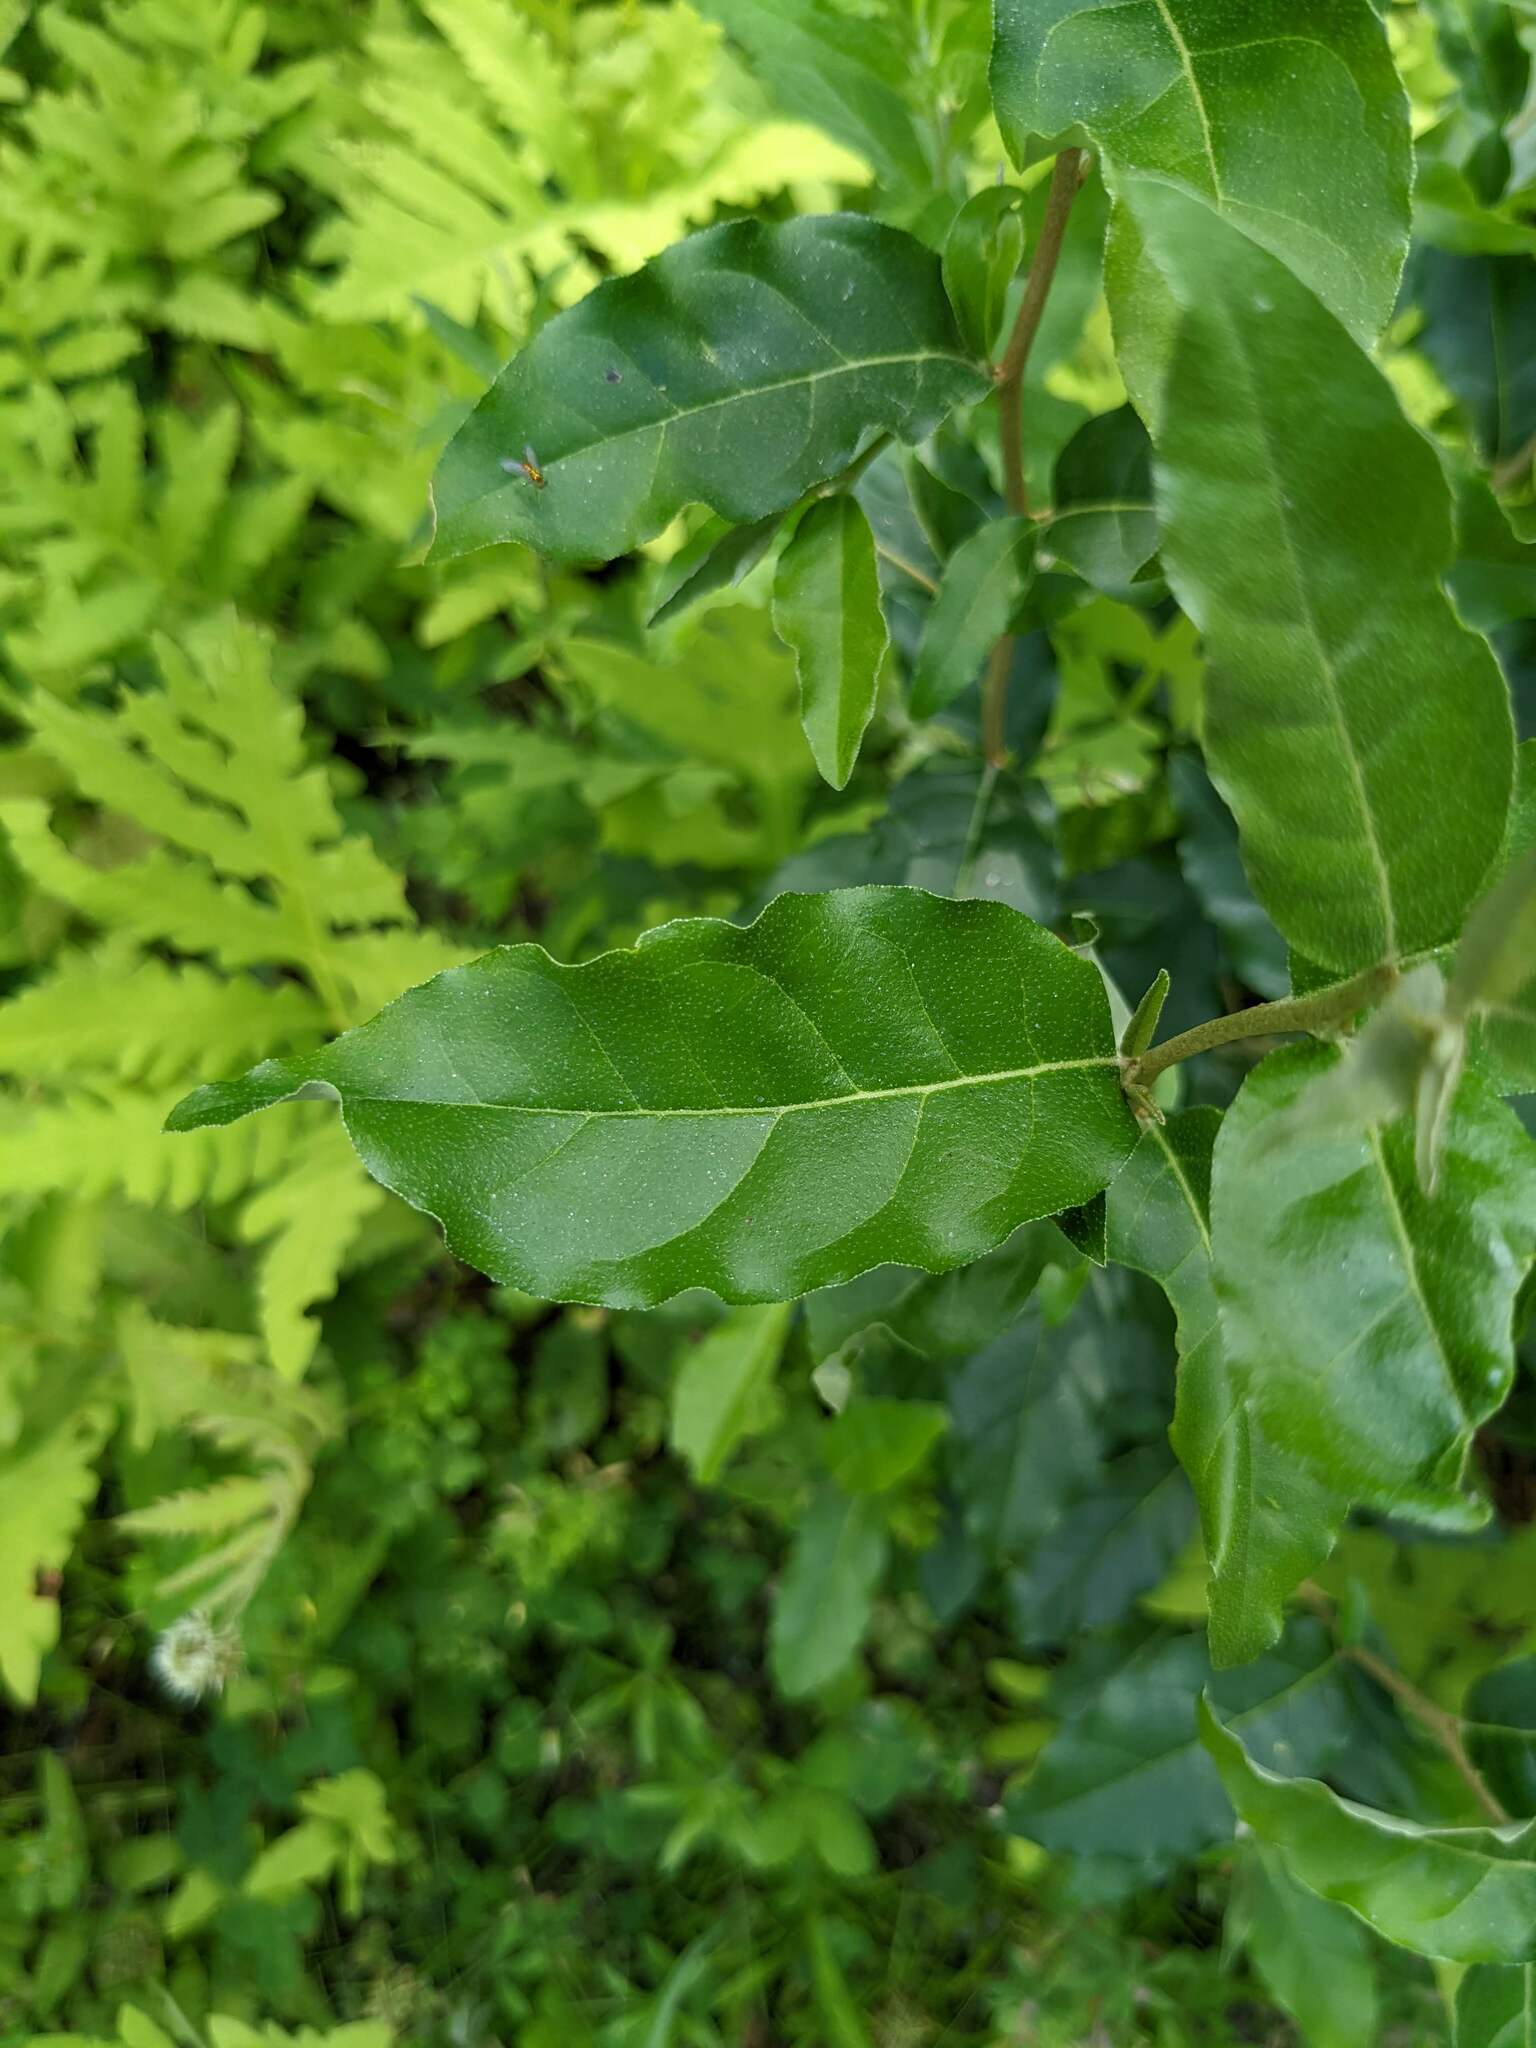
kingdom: Plantae
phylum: Tracheophyta
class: Magnoliopsida
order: Rosales
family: Elaeagnaceae
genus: Elaeagnus
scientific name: Elaeagnus umbellata
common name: Autumn olive
